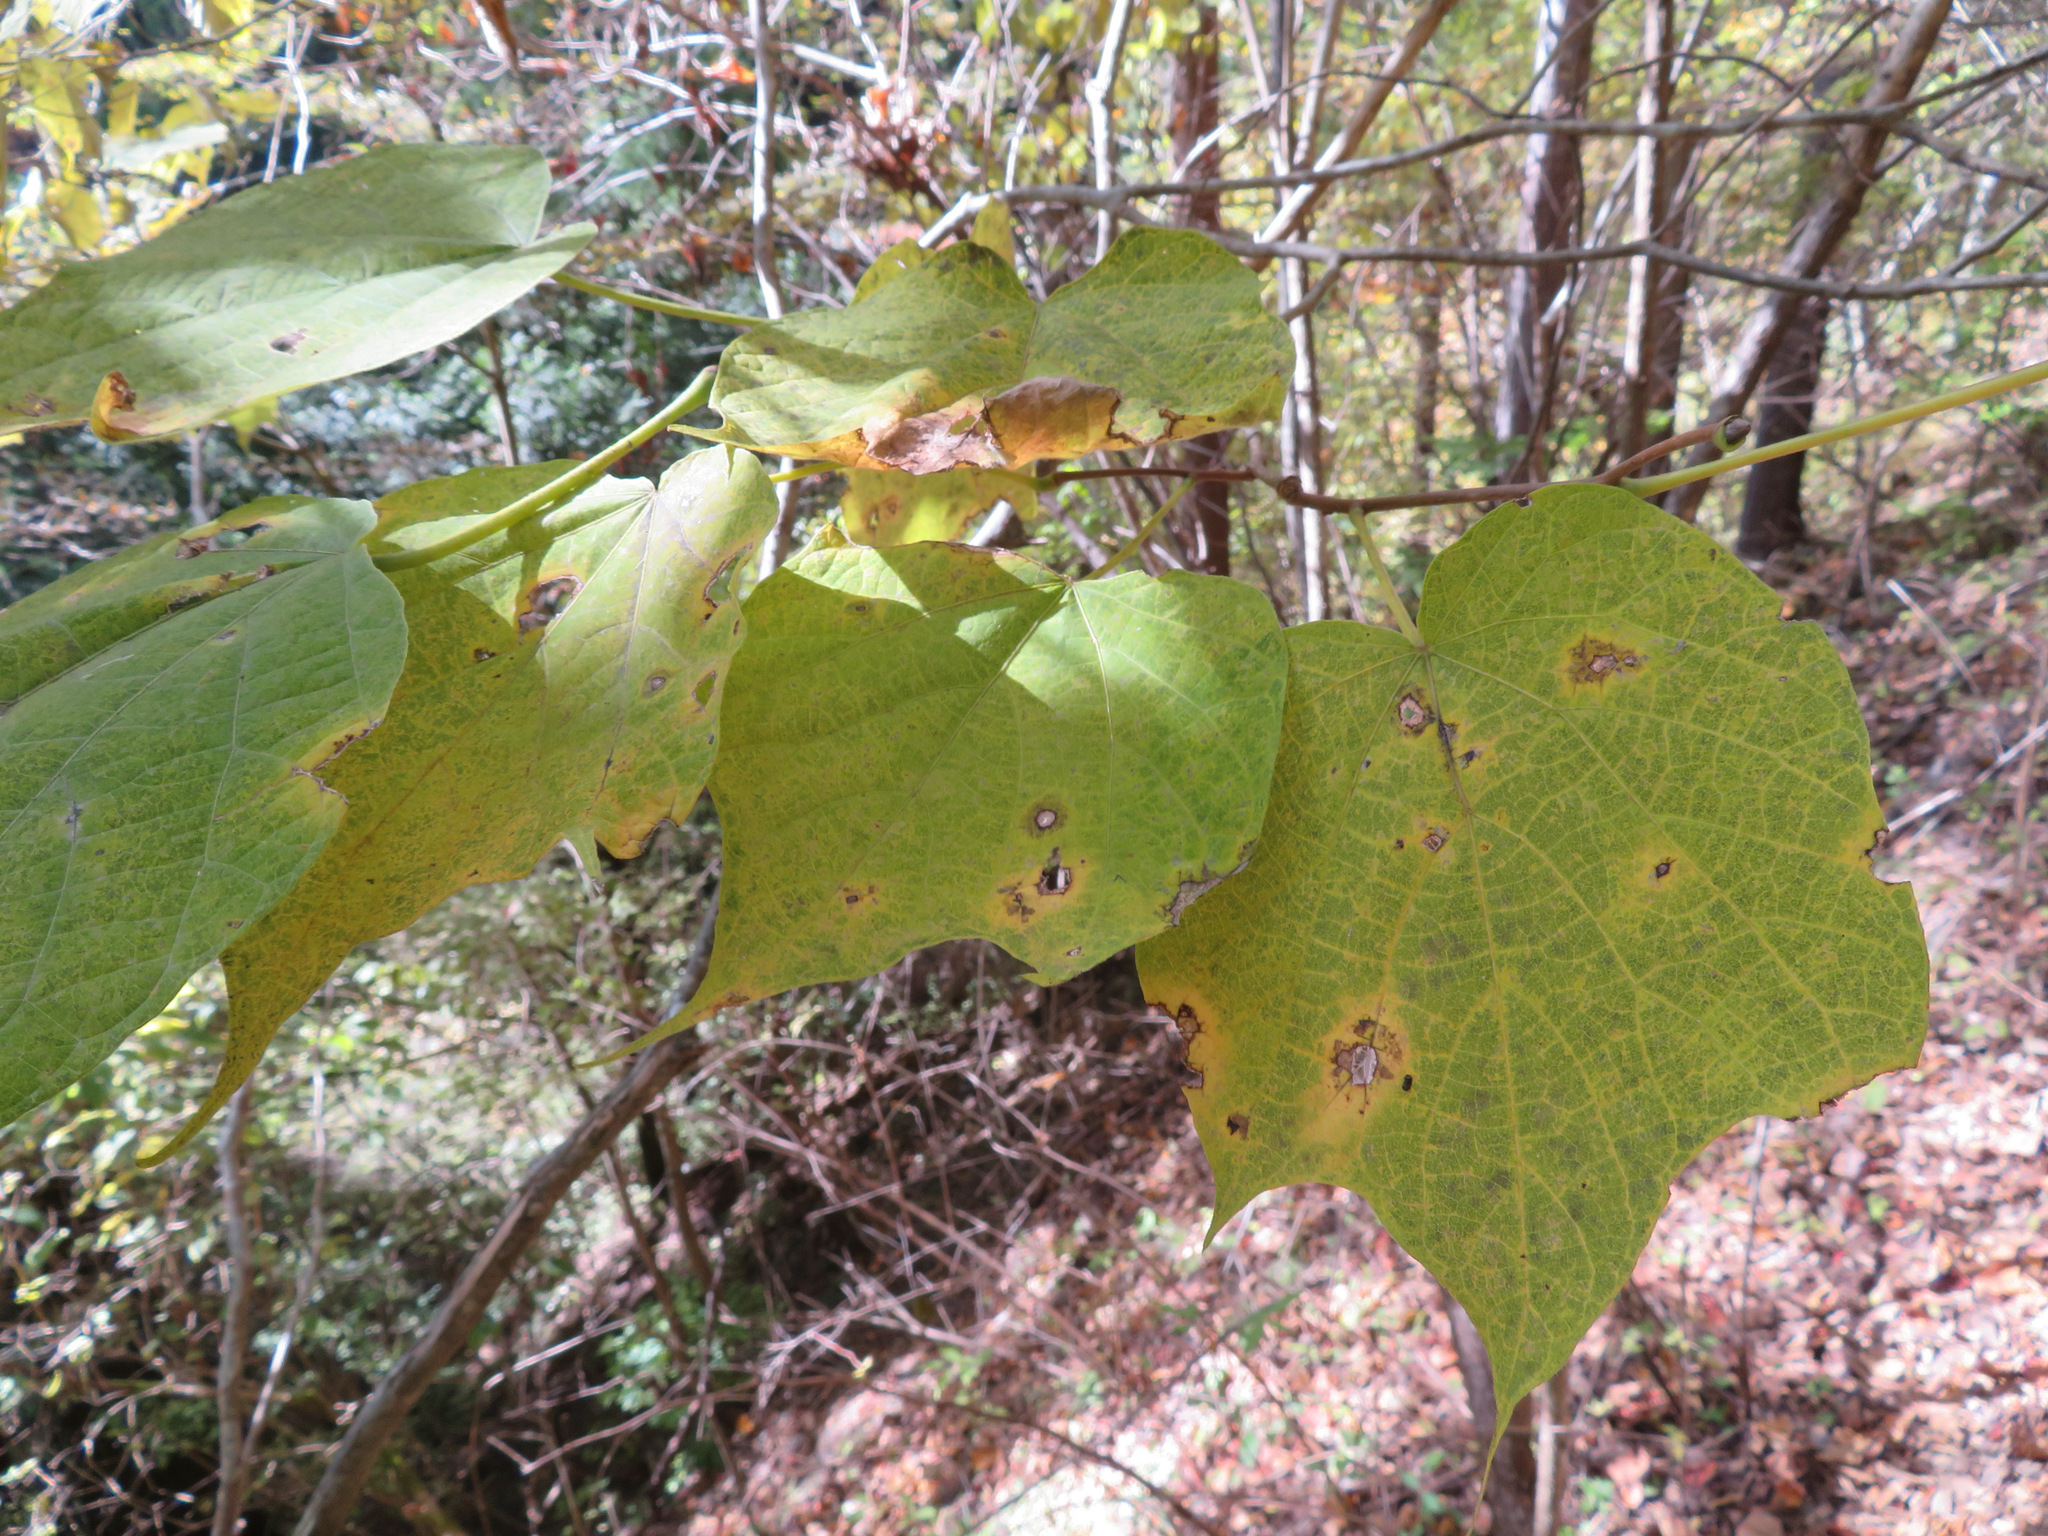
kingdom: Plantae
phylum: Tracheophyta
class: Magnoliopsida
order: Cornales
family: Cornaceae
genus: Alangium
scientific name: Alangium platanifolium
